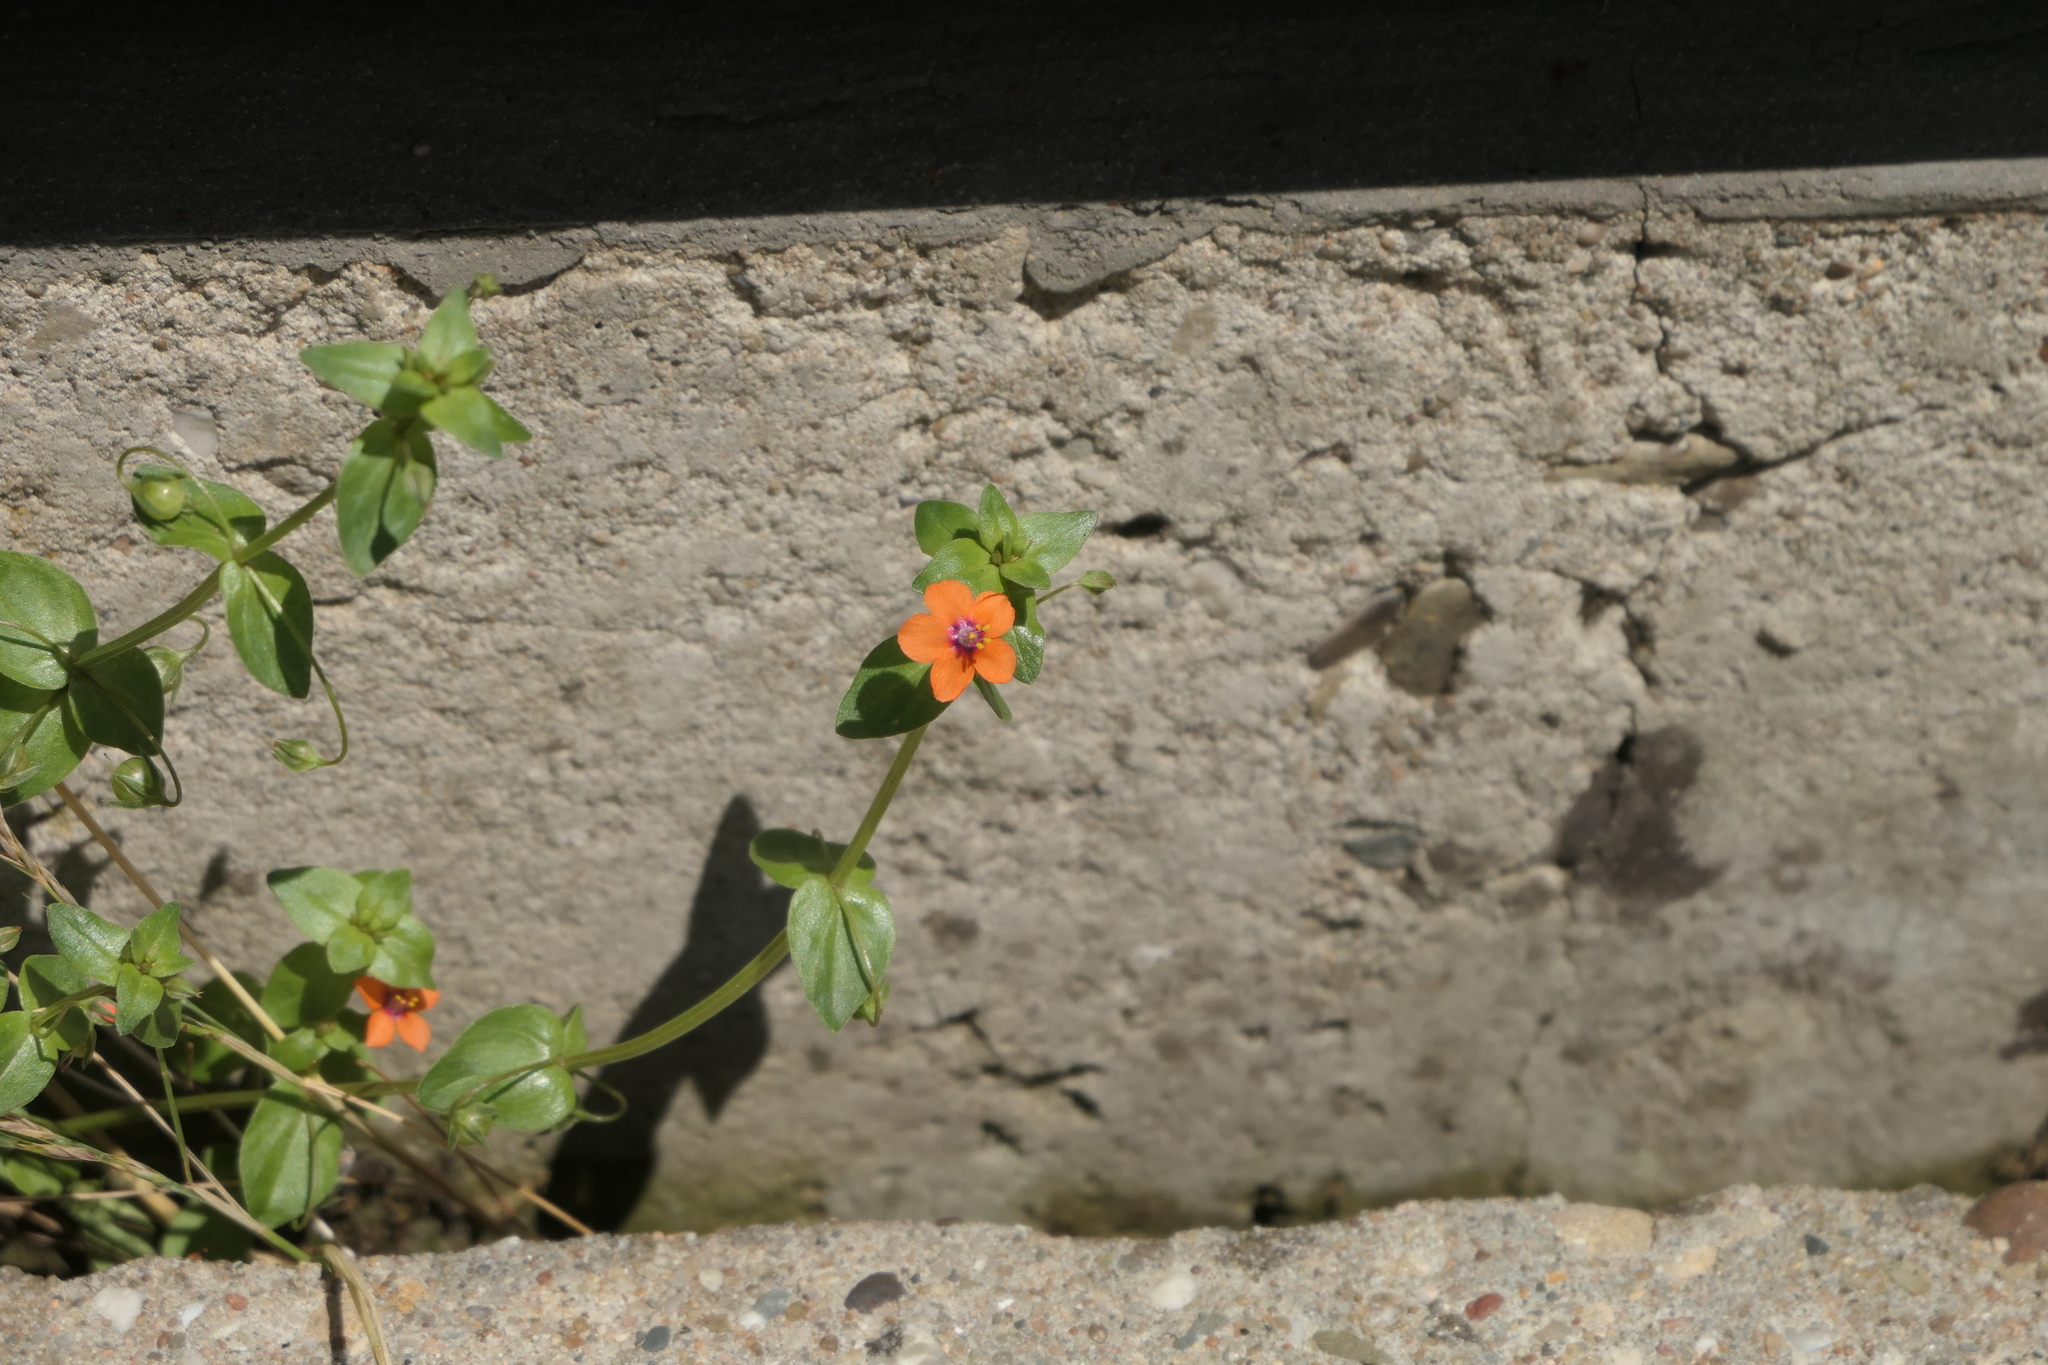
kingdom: Plantae
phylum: Tracheophyta
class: Magnoliopsida
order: Ericales
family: Primulaceae
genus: Lysimachia
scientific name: Lysimachia arvensis
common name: Scarlet pimpernel
